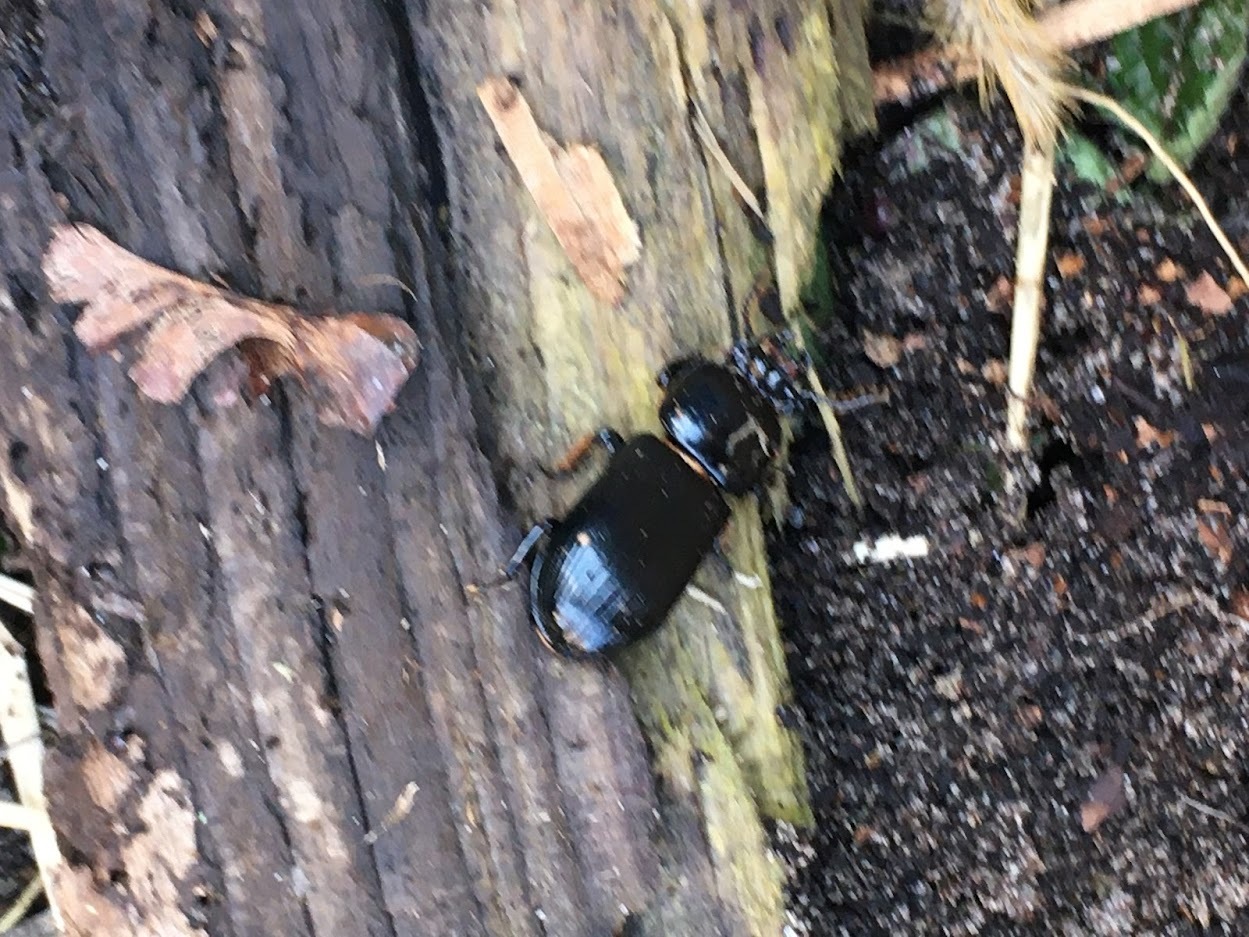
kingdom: Animalia
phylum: Arthropoda
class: Insecta
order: Coleoptera
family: Passalidae
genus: Odontotaenius
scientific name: Odontotaenius disjunctus
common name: Patent leather beetle
